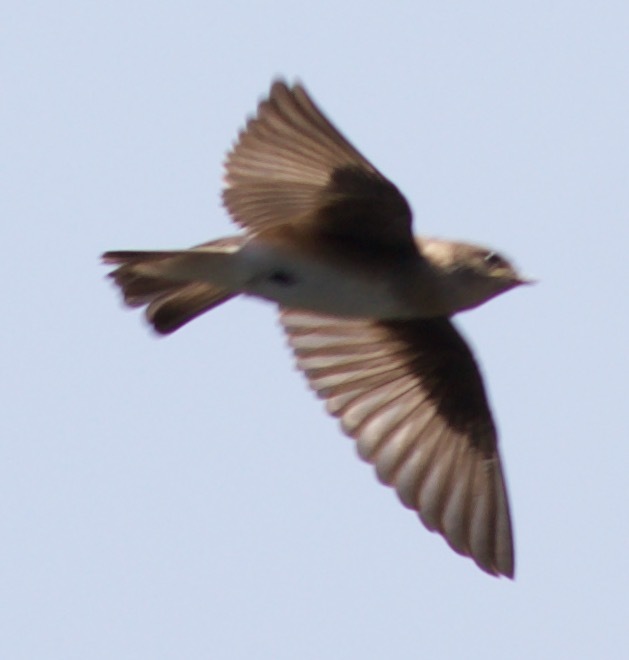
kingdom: Animalia
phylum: Chordata
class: Aves
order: Passeriformes
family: Hirundinidae
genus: Stelgidopteryx
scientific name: Stelgidopteryx serripennis
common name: Northern rough-winged swallow
